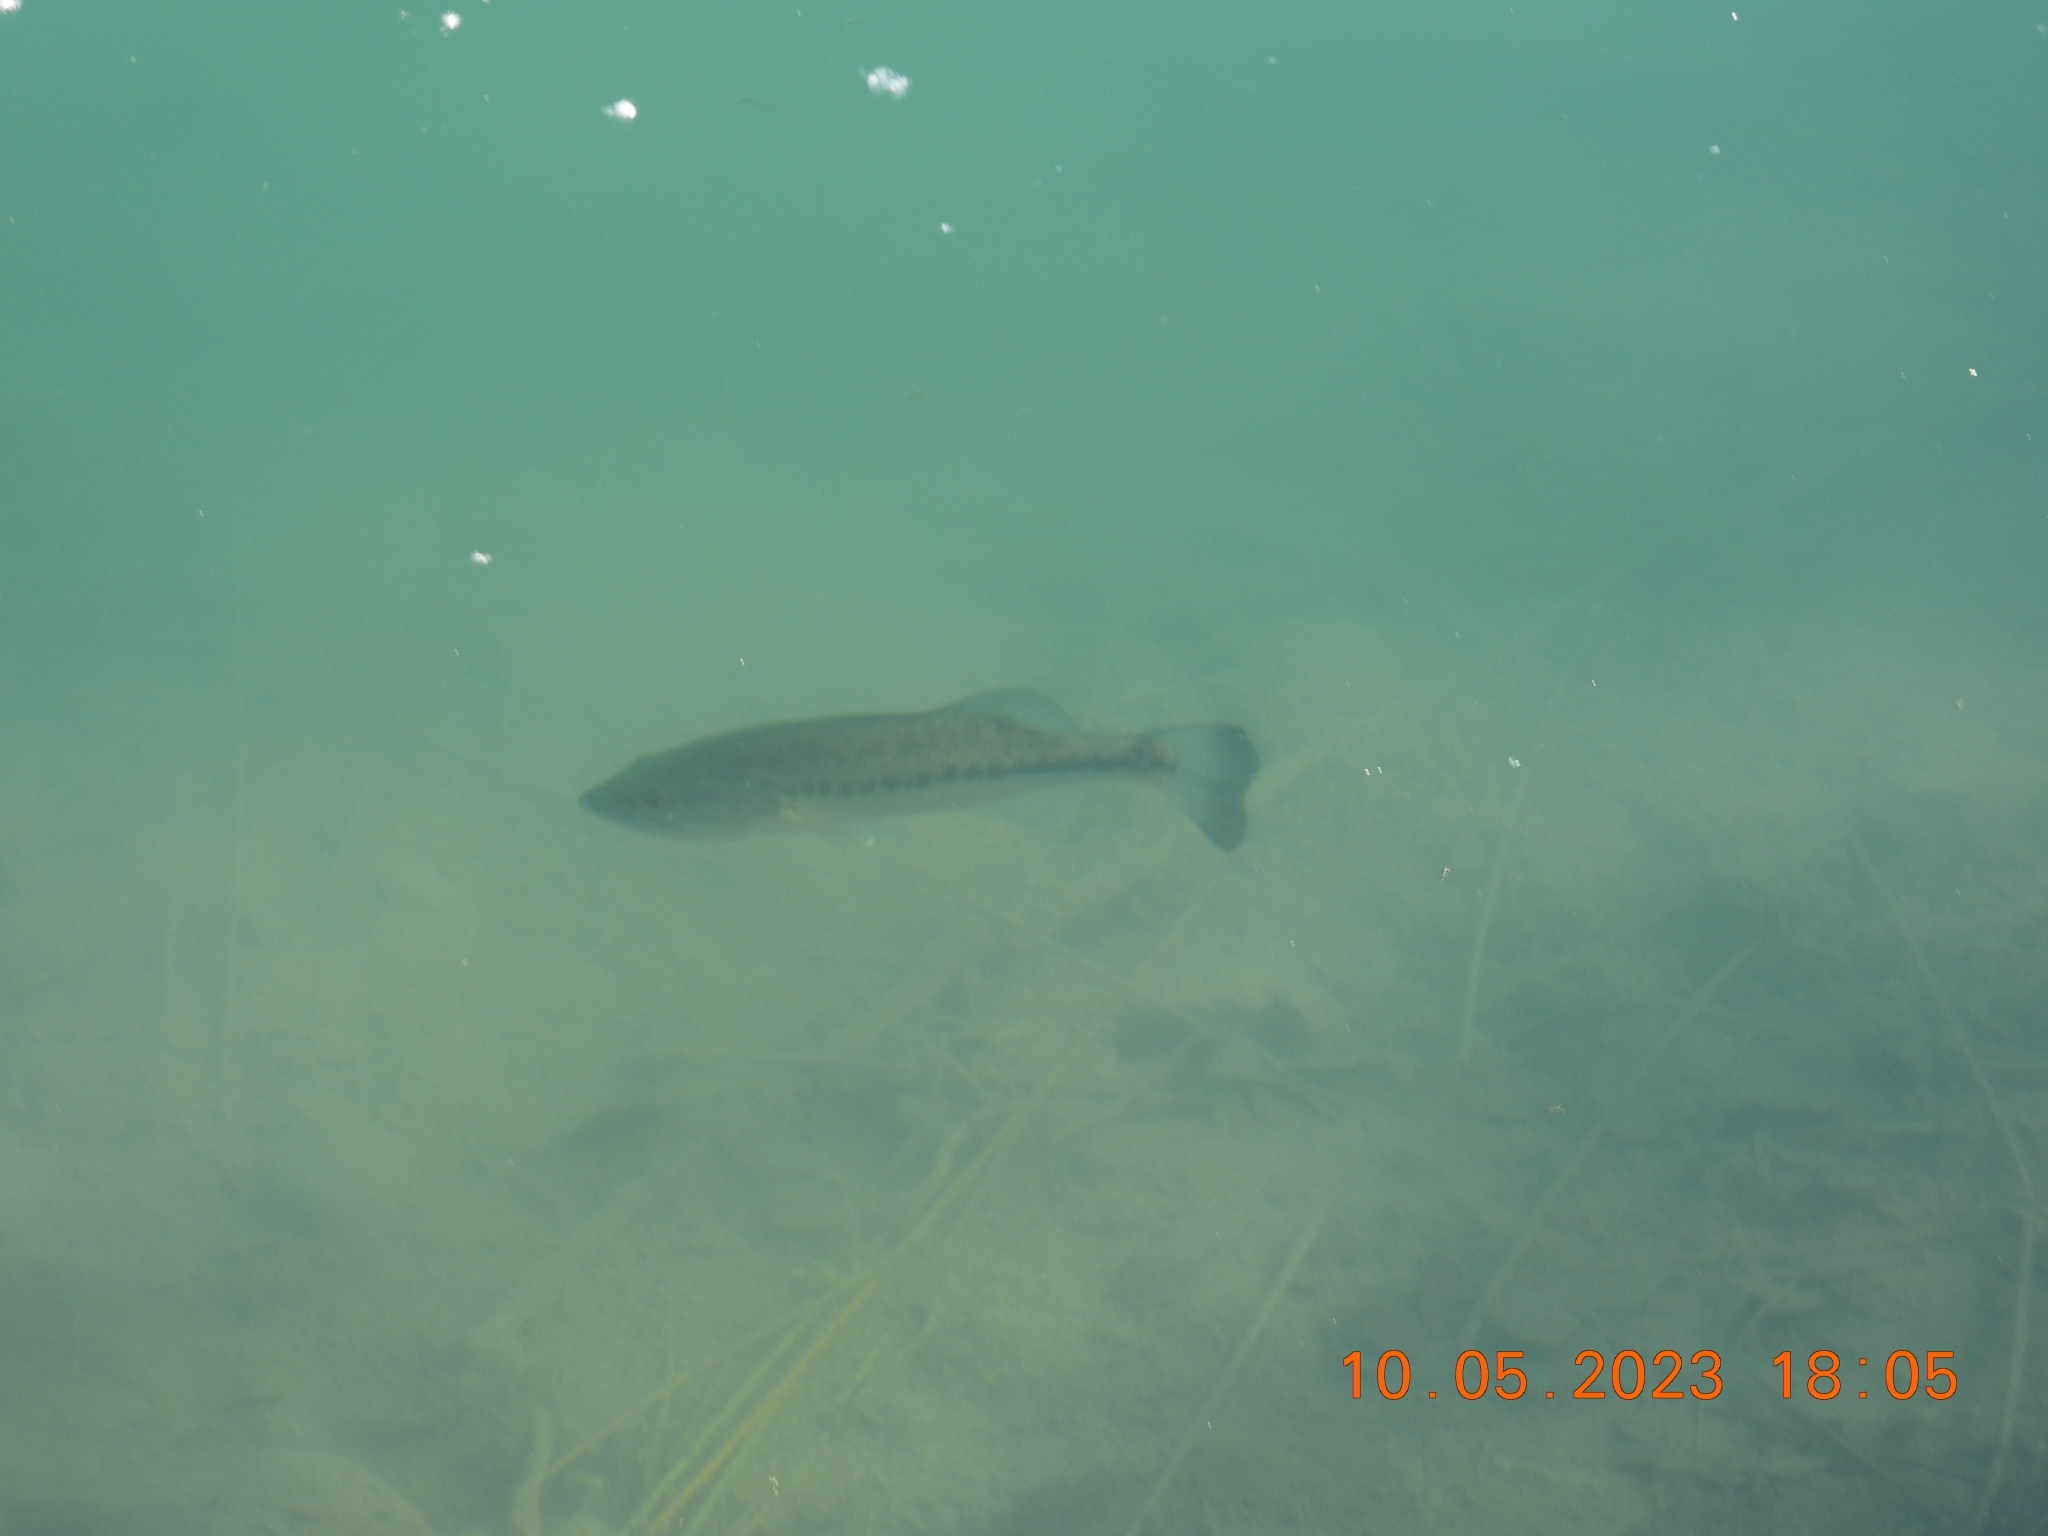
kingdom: Animalia
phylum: Chordata
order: Perciformes
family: Centrarchidae
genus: Micropterus
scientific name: Micropterus
